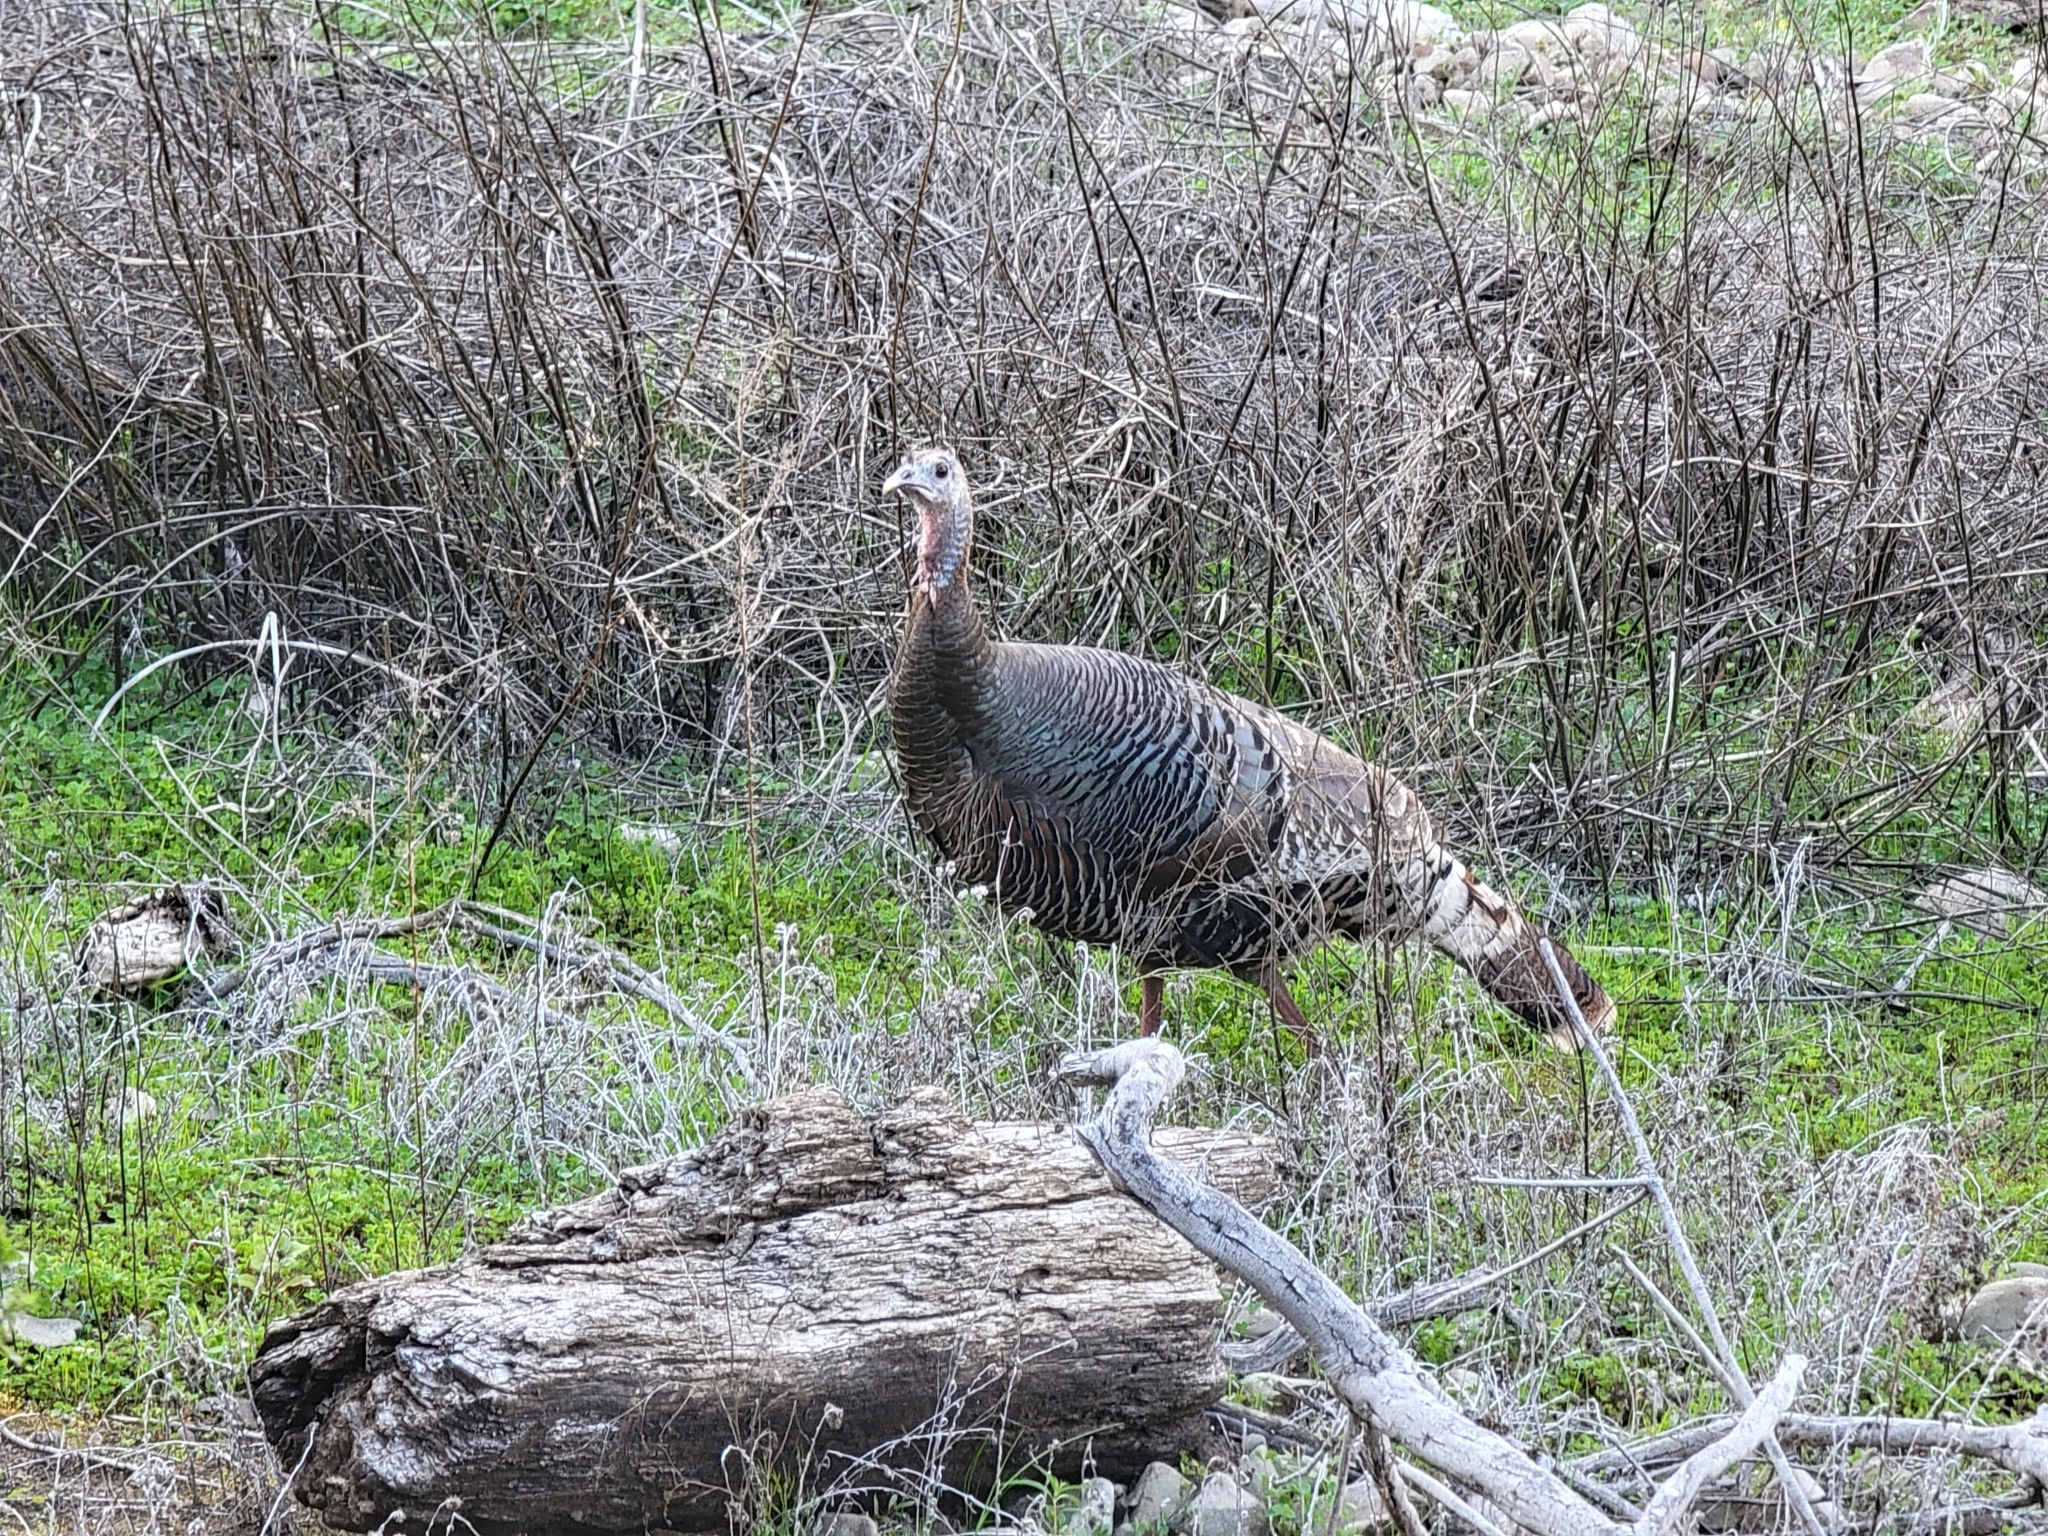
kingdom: Animalia
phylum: Chordata
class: Aves
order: Galliformes
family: Phasianidae
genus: Meleagris
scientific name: Meleagris gallopavo
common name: Wild turkey
